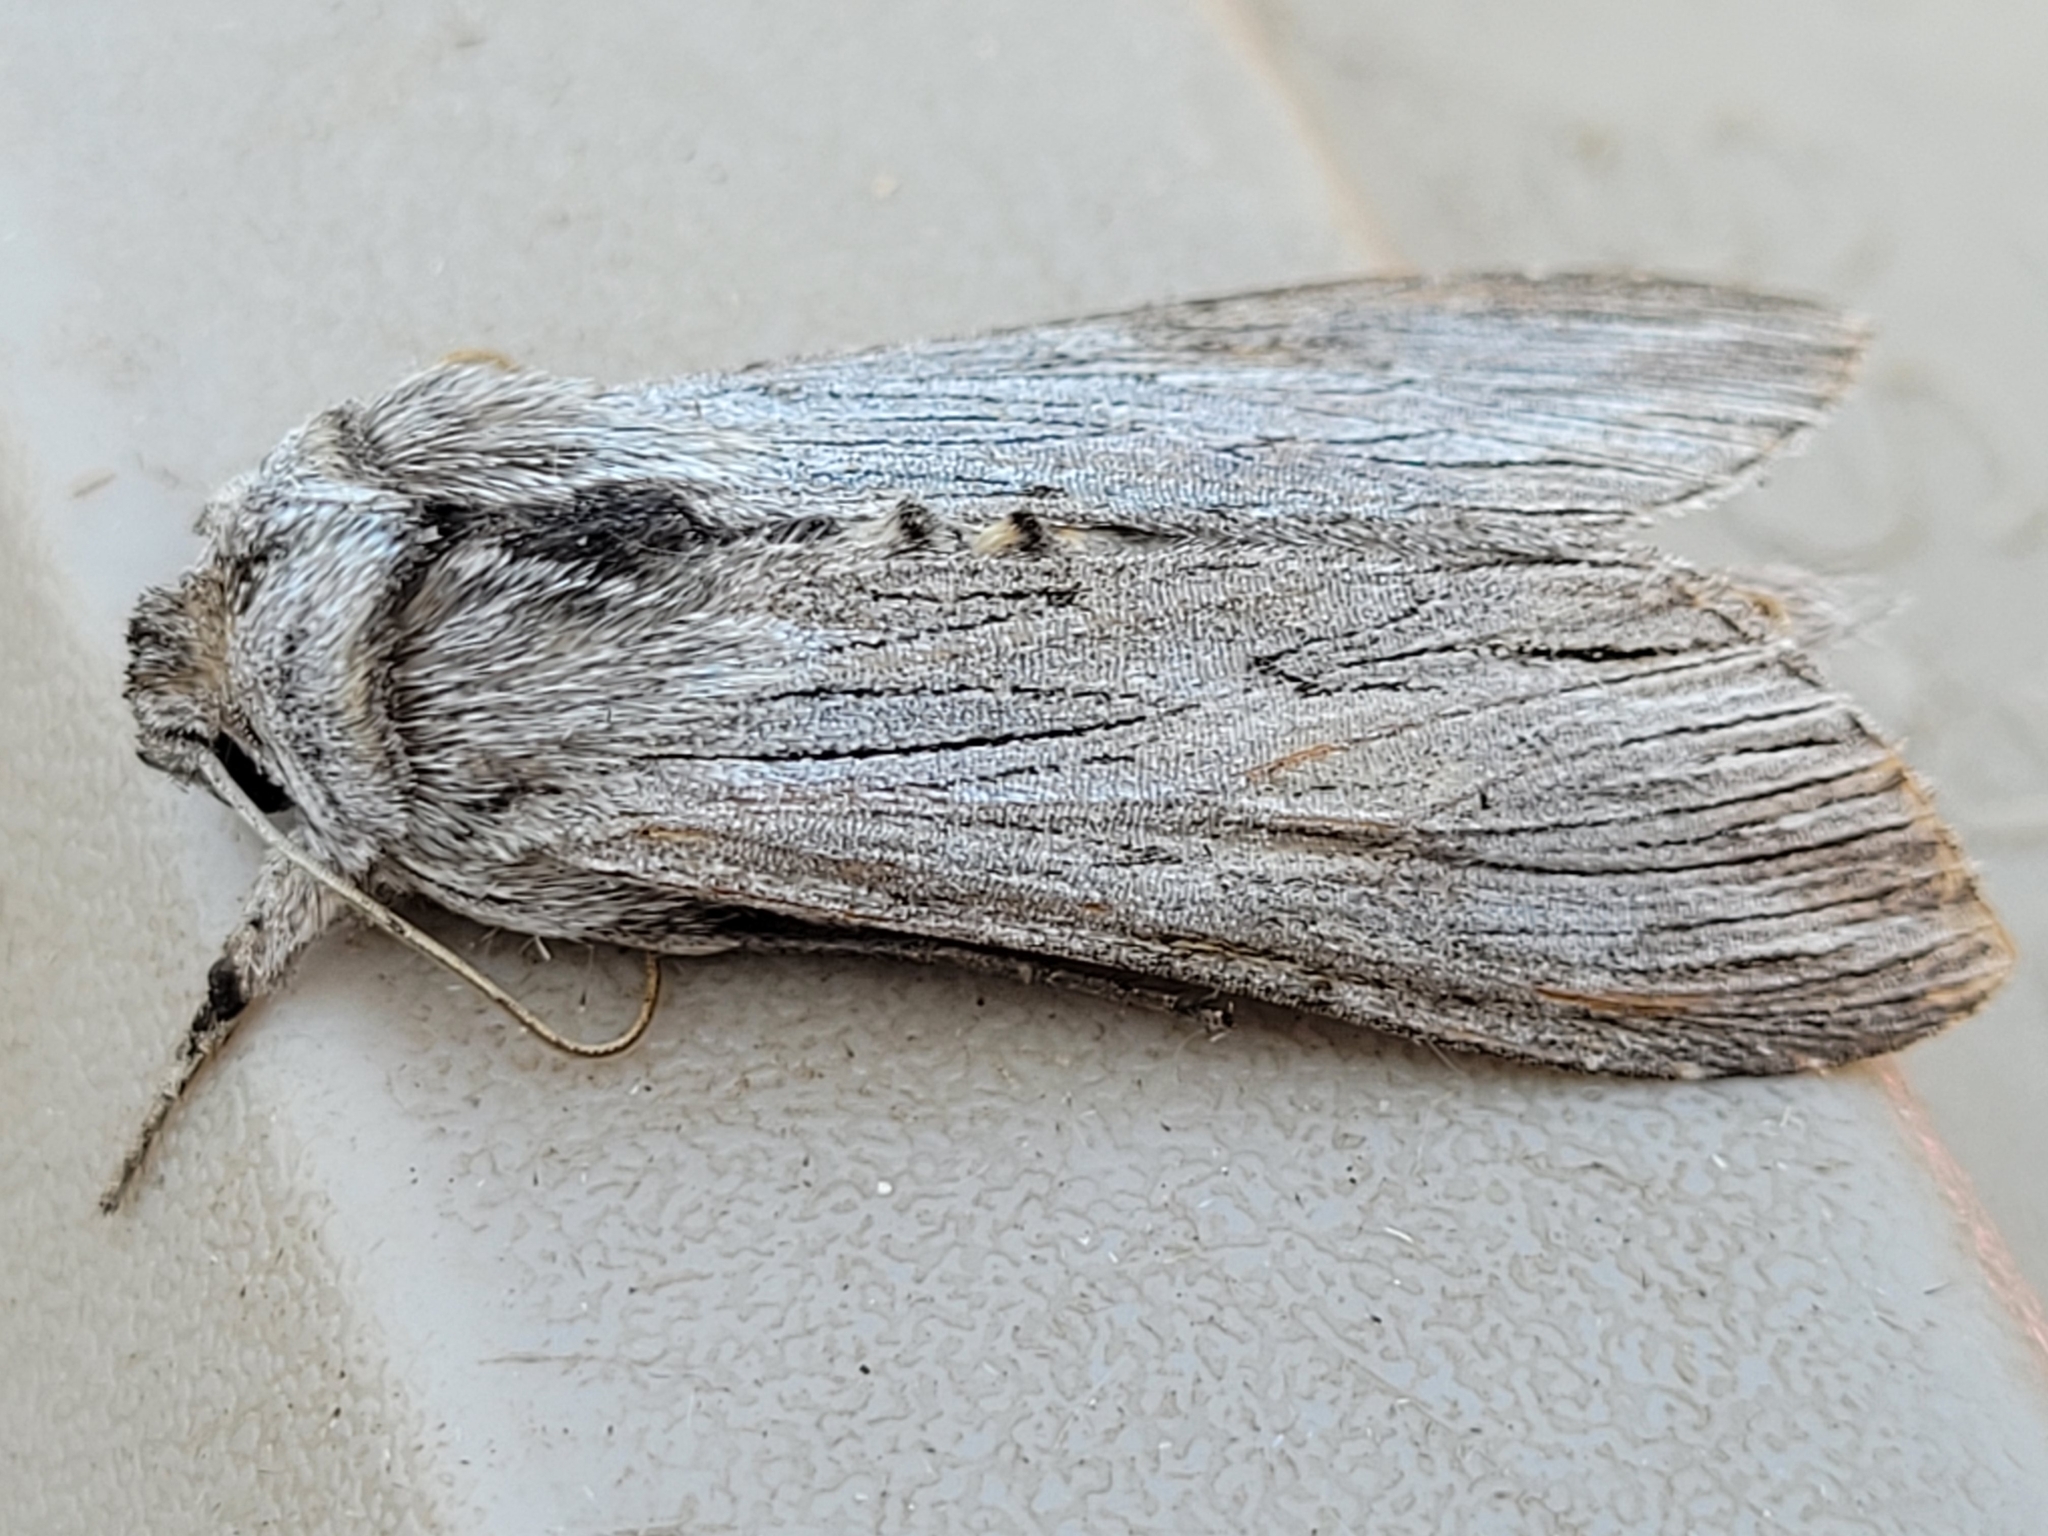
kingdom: Animalia
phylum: Arthropoda
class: Insecta
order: Lepidoptera
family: Noctuidae
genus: Cucullia
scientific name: Cucullia speyeri
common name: Speyer's cucullia moth
